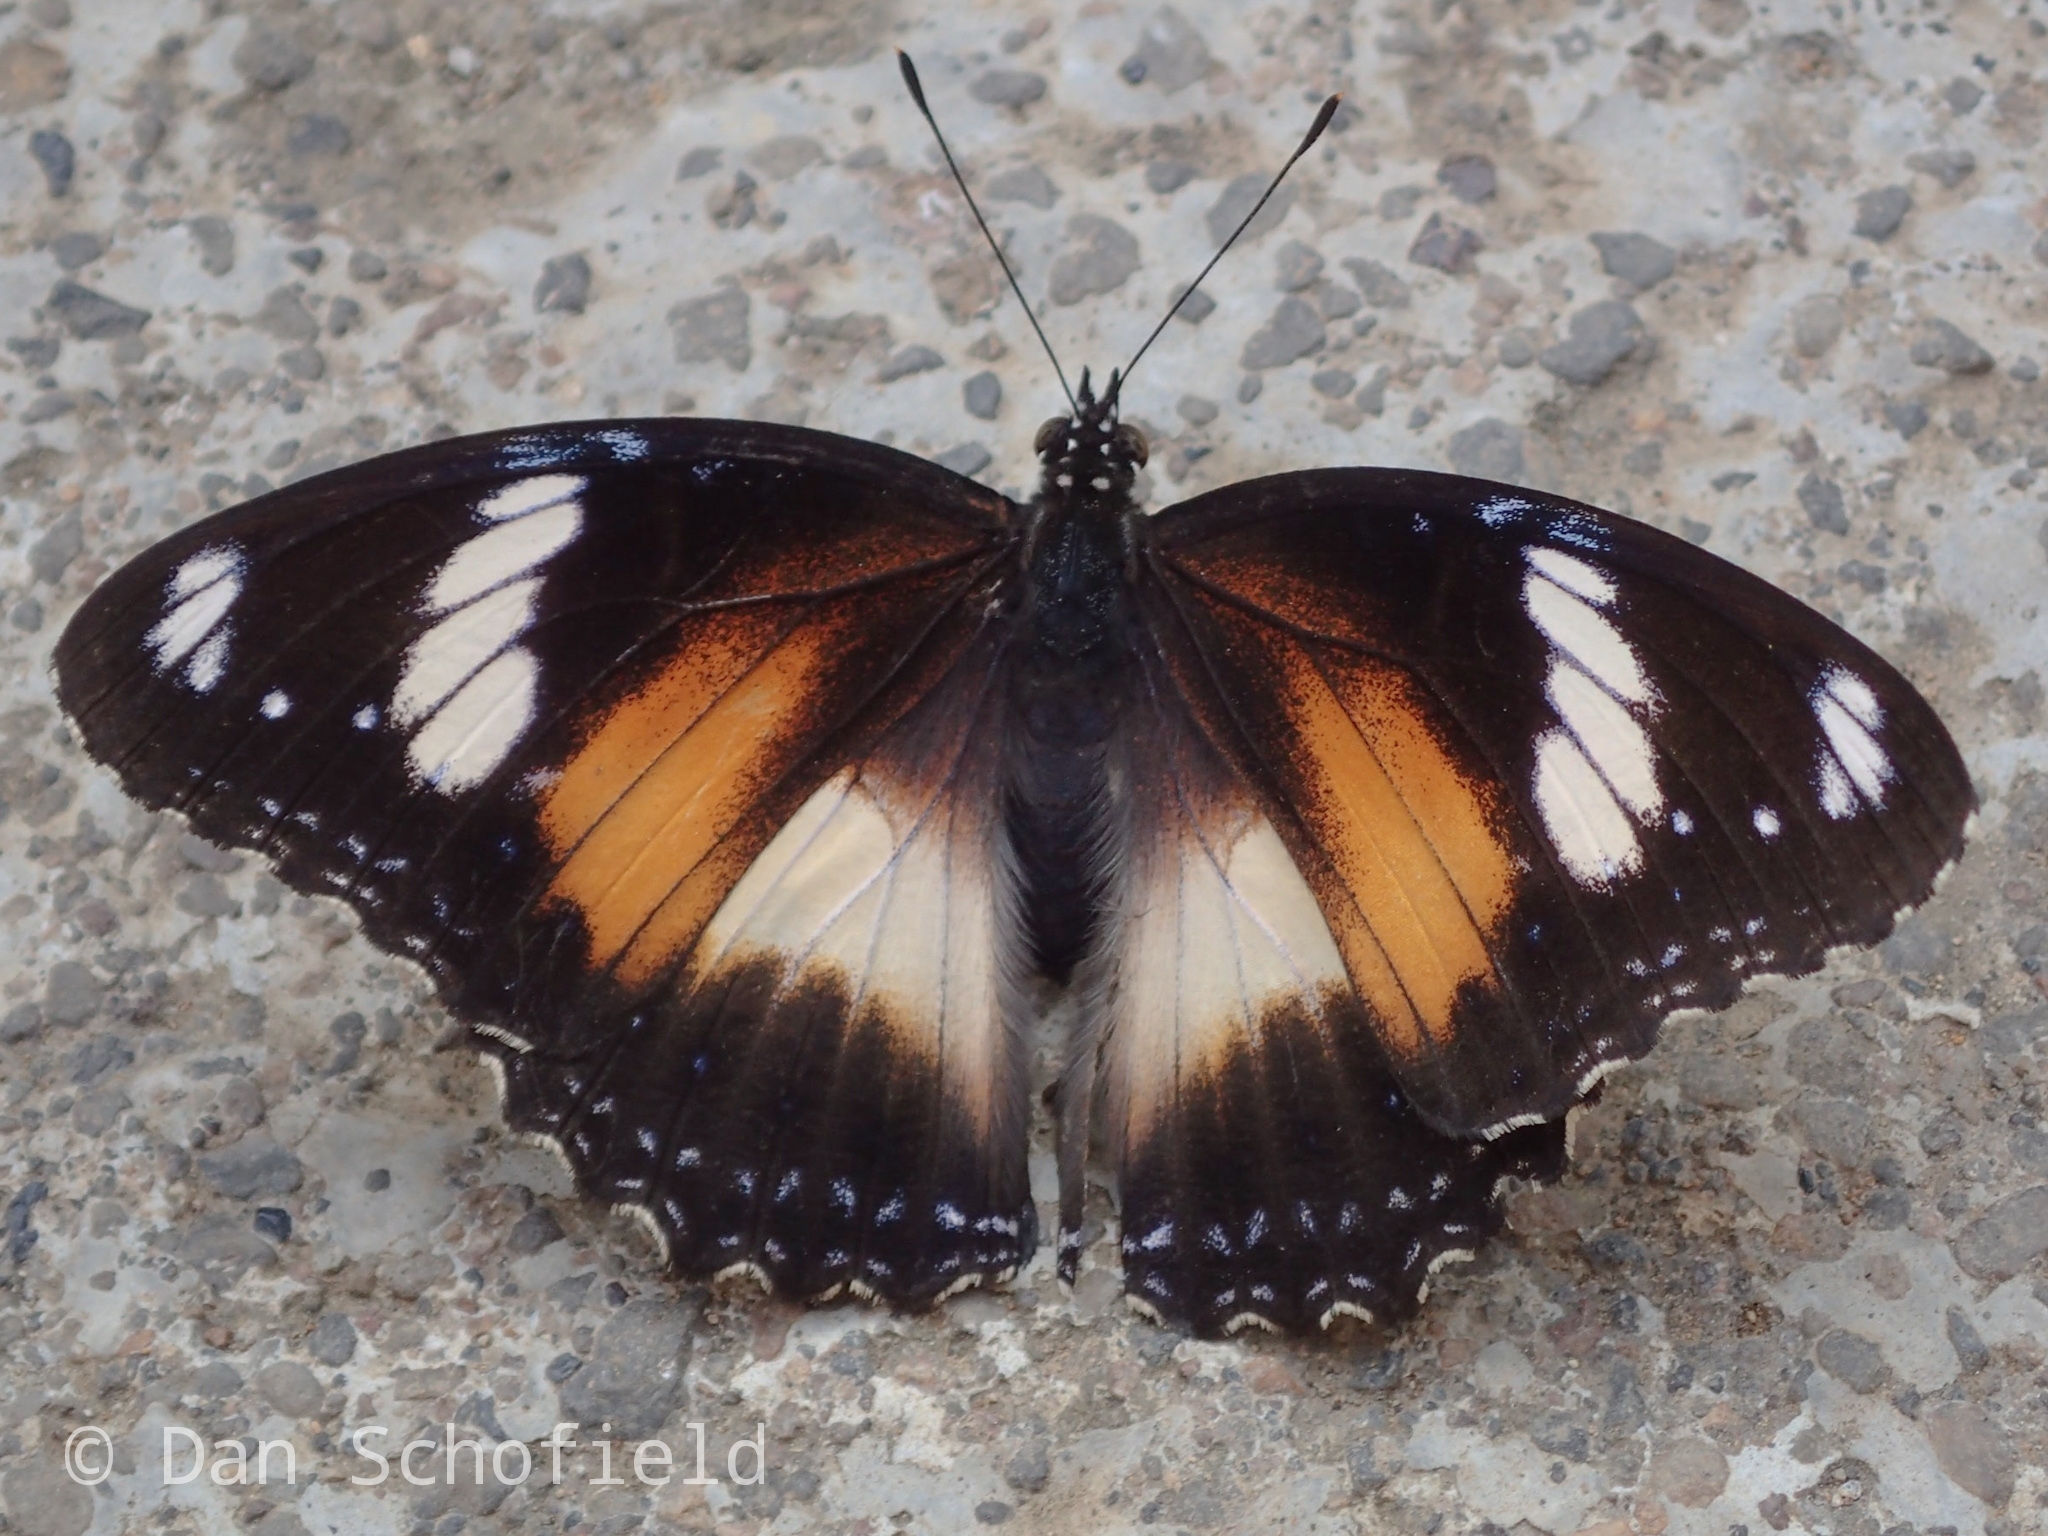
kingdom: Animalia
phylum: Arthropoda
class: Insecta
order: Lepidoptera
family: Nymphalidae
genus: Hypolimnas
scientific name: Hypolimnas bolina
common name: Great eggfly
